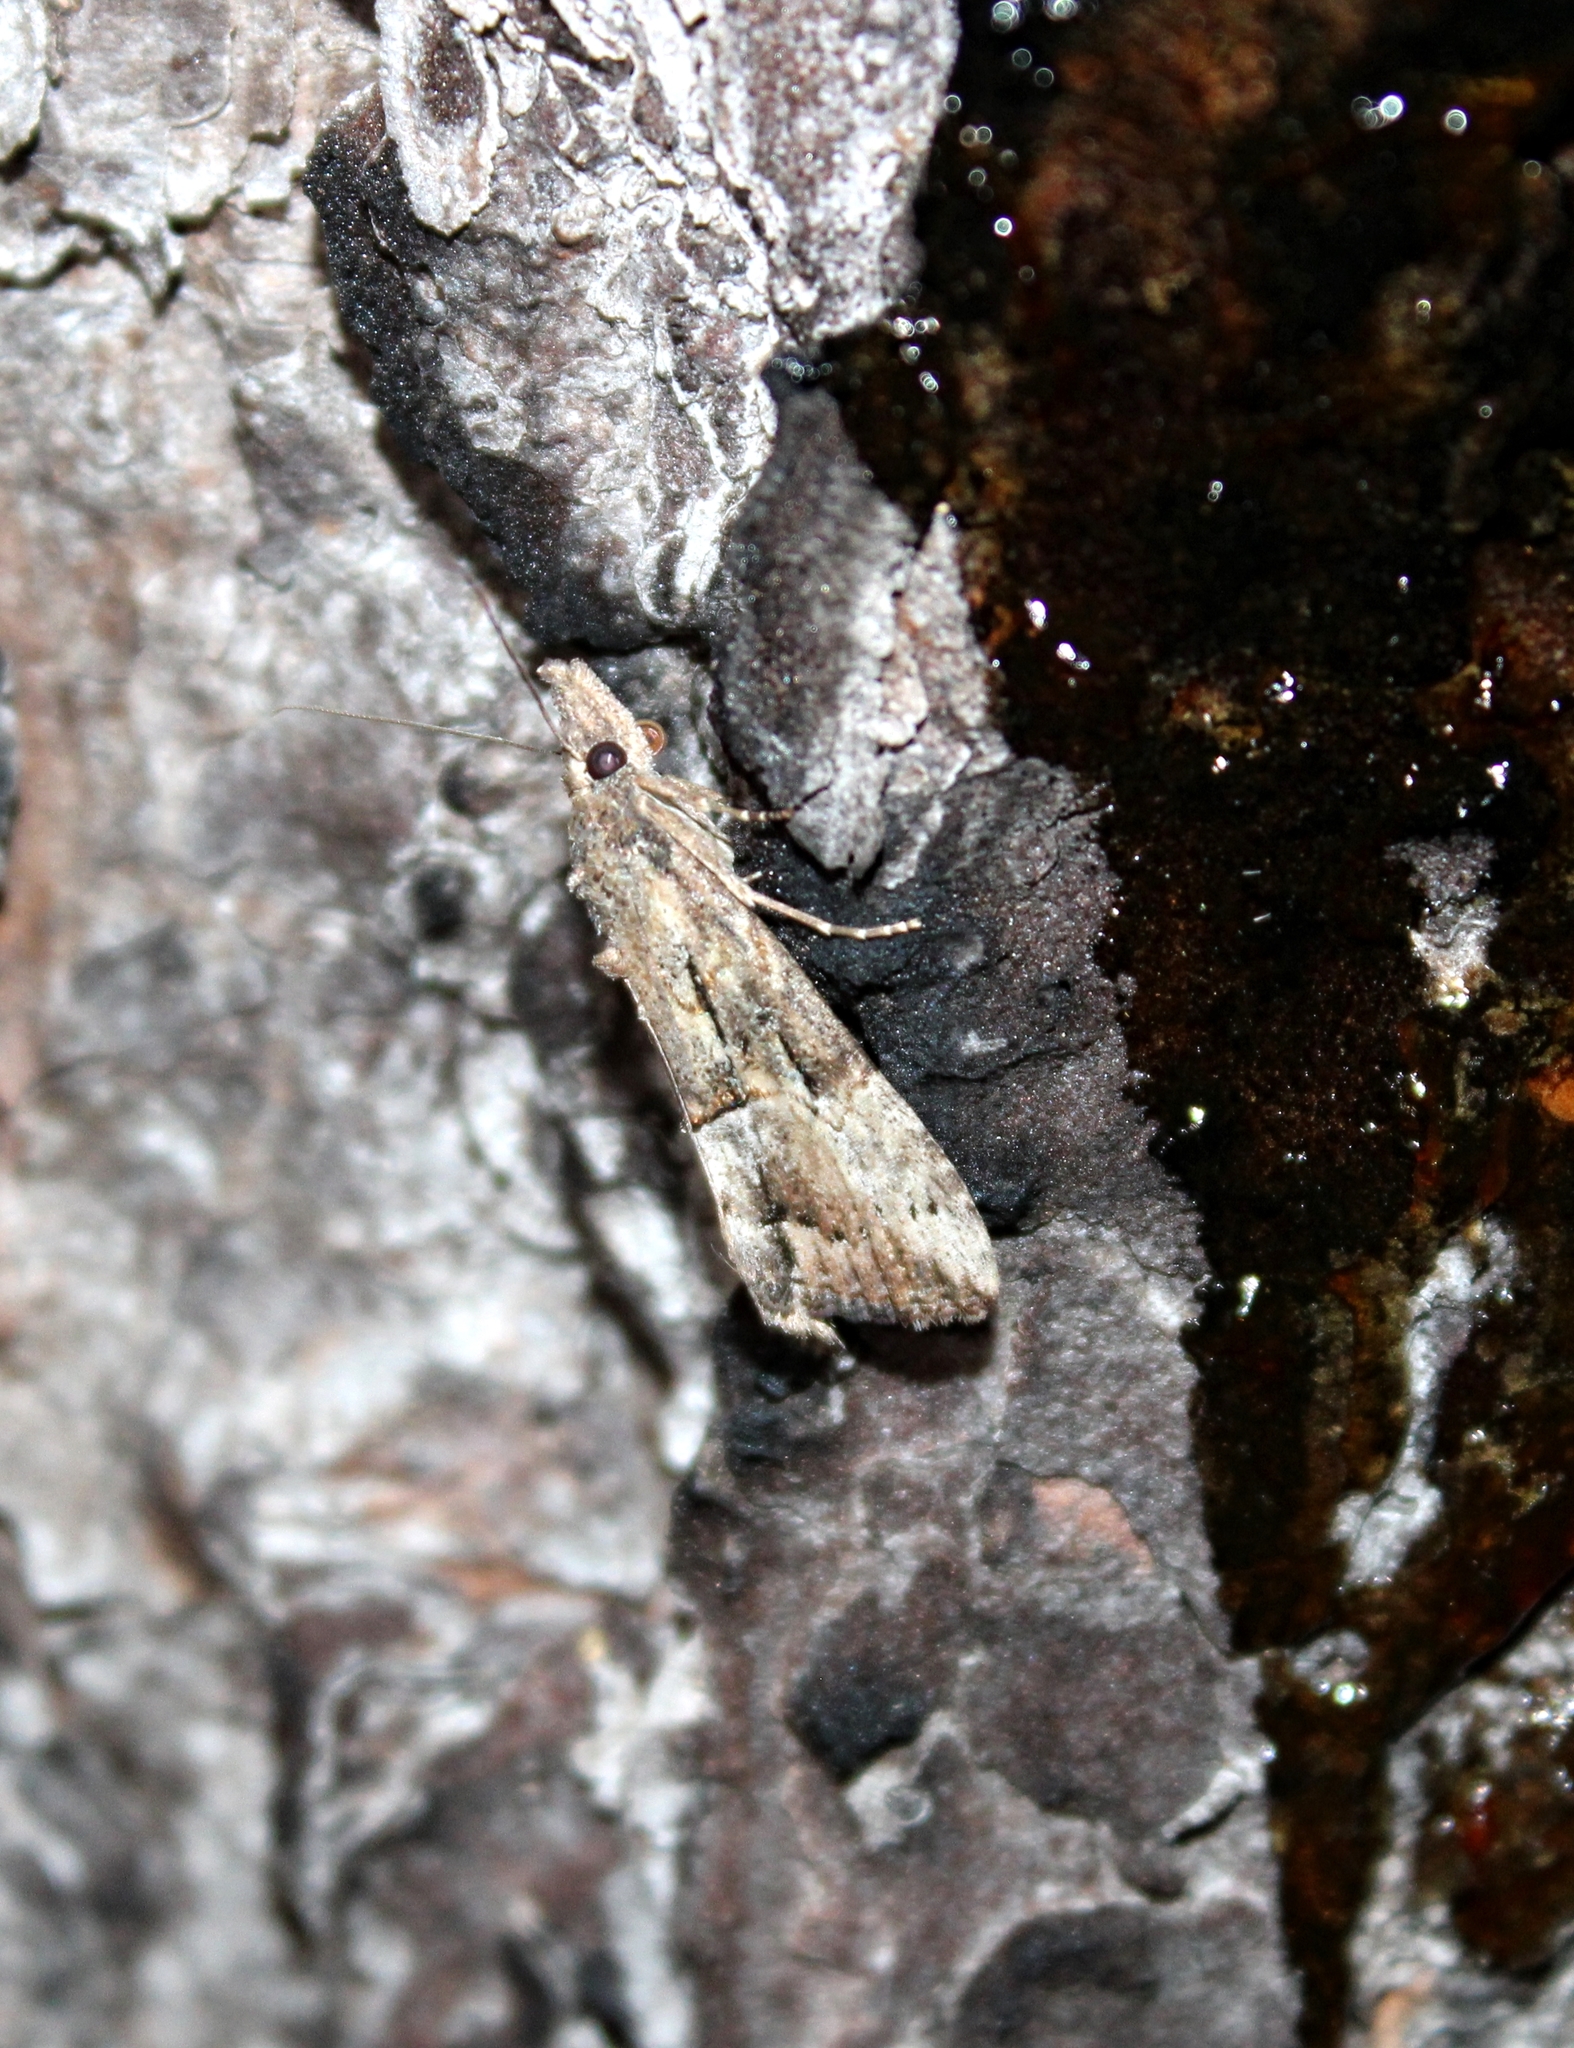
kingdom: Animalia
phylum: Arthropoda
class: Insecta
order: Lepidoptera
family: Erebidae
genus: Hypena
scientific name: Hypena scabra
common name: Green cloverworm
